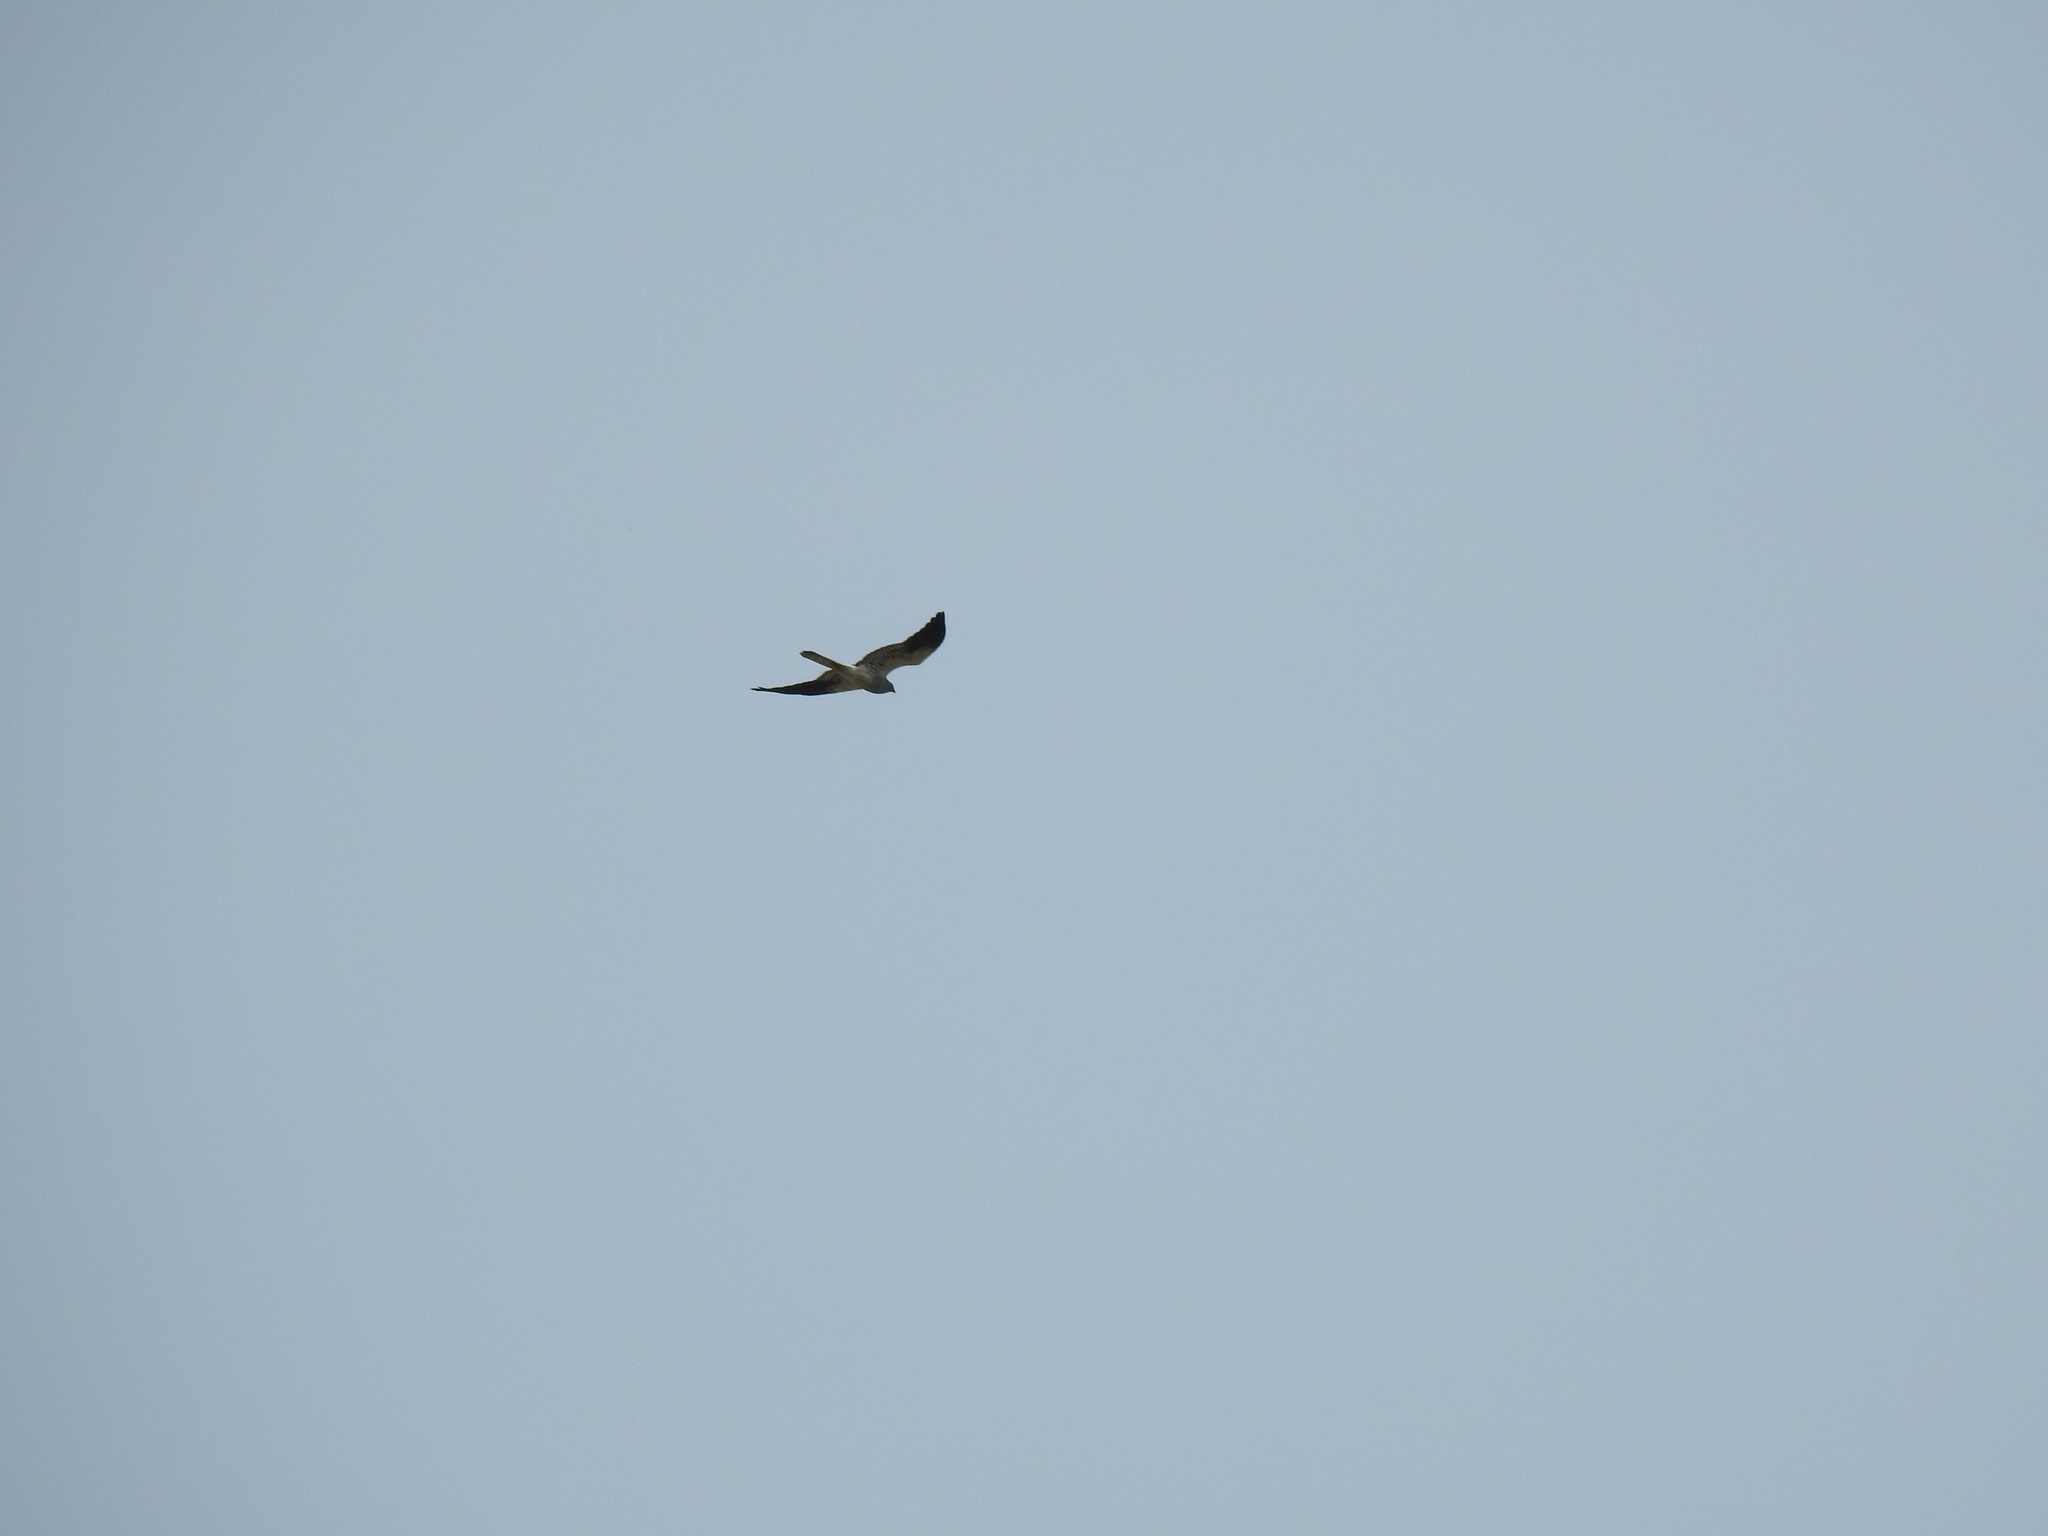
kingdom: Animalia
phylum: Chordata
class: Aves
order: Accipitriformes
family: Accipitridae
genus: Circus
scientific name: Circus pygargus
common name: Montagu's harrier
